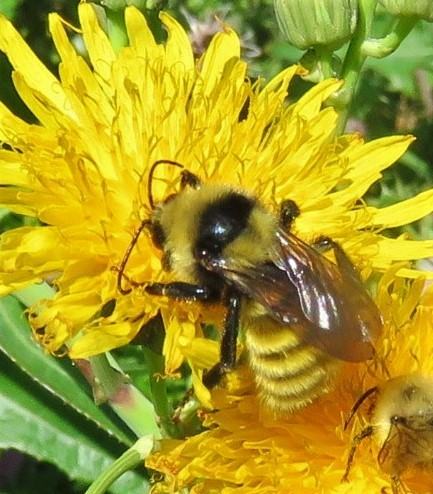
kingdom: Animalia
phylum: Arthropoda
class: Insecta
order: Hymenoptera
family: Apidae
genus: Bombus
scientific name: Bombus borealis
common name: Northern amber bumble bee
